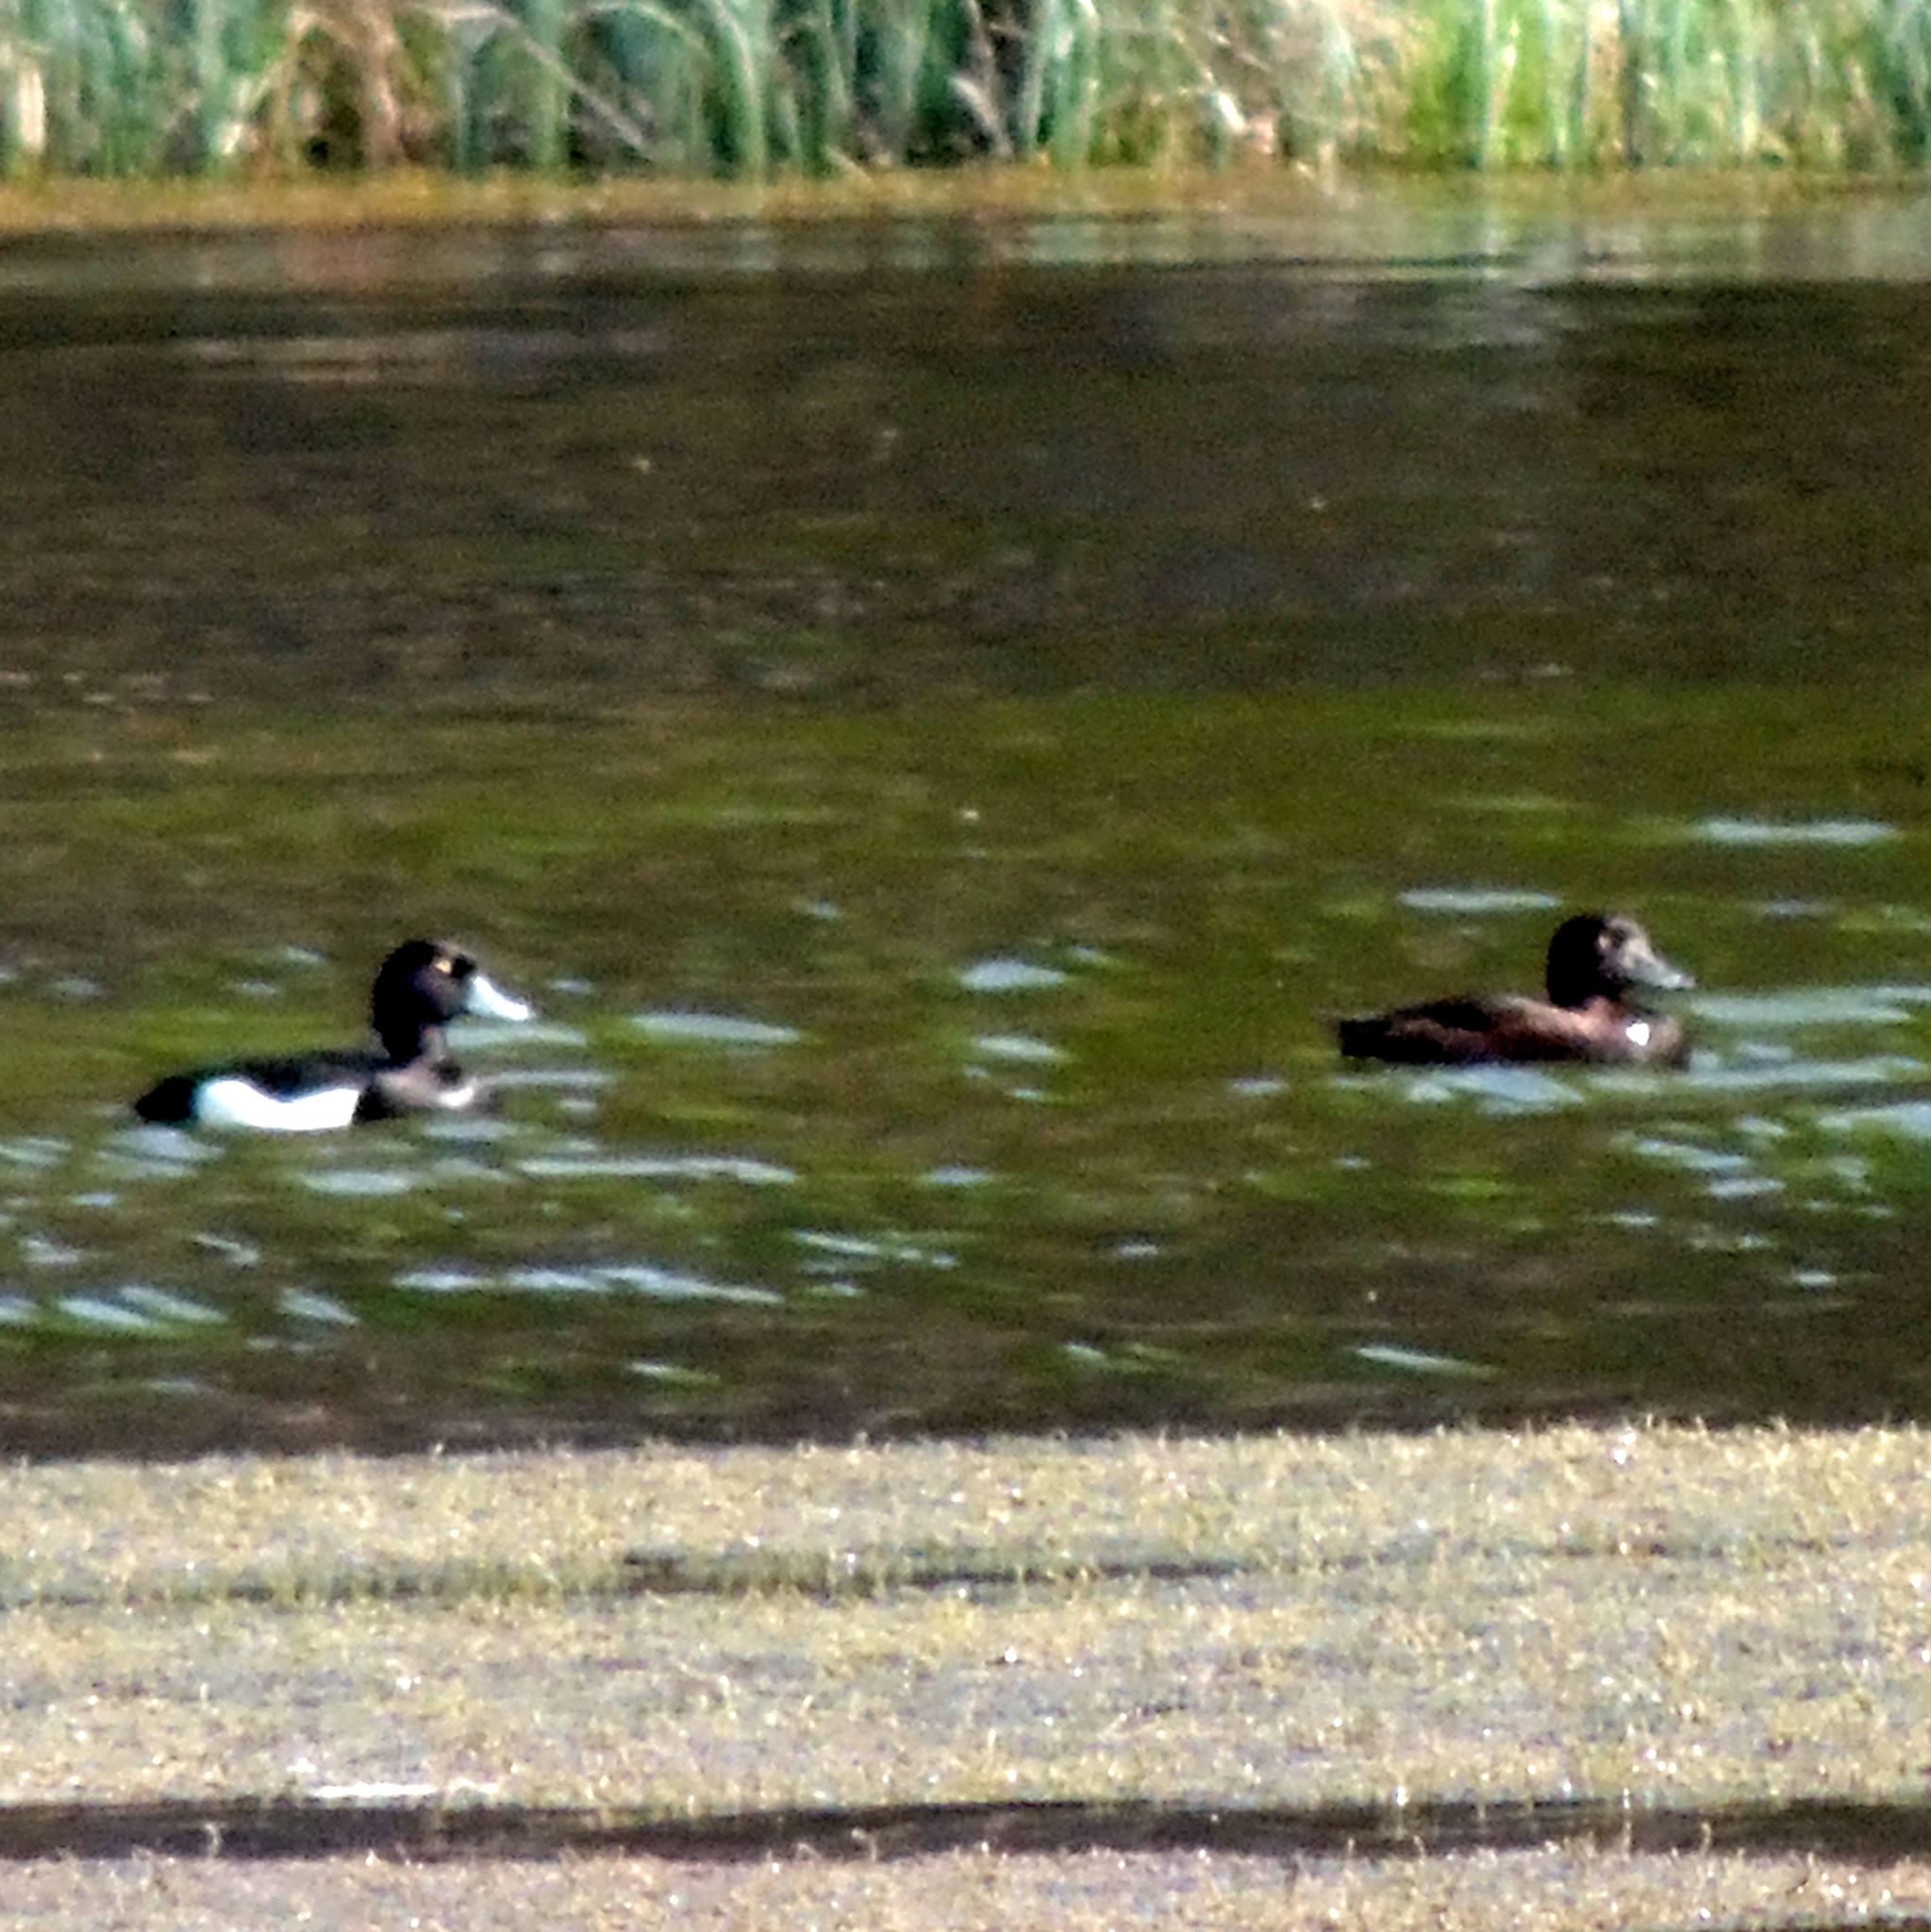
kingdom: Animalia
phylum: Chordata
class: Aves
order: Anseriformes
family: Anatidae
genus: Aythya
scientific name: Aythya fuligula
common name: Tufted duck
